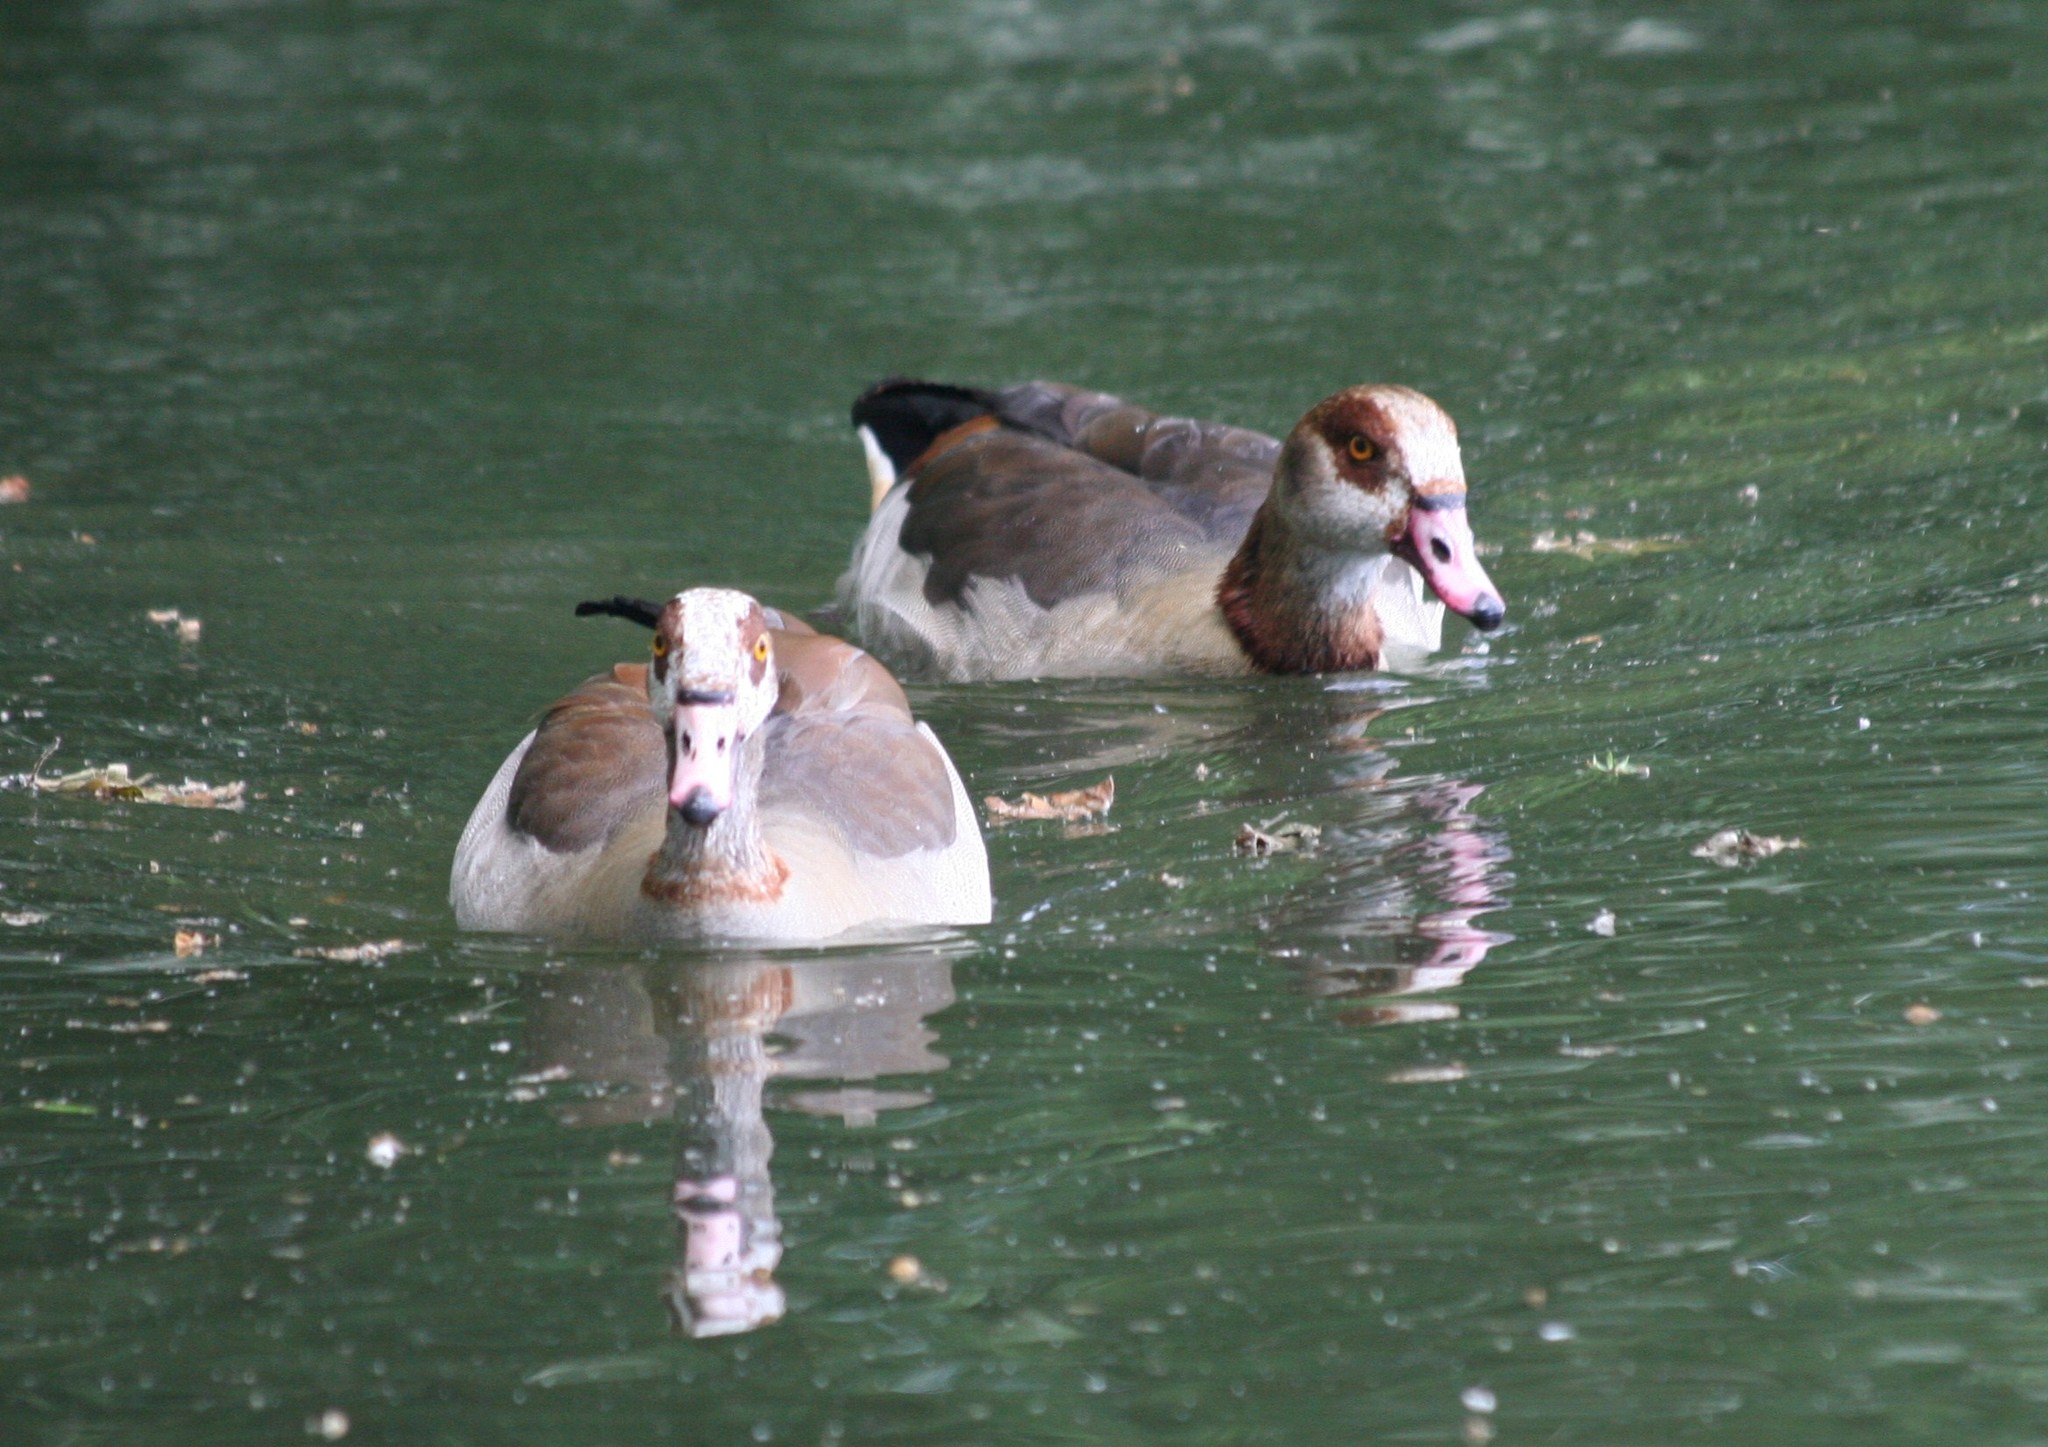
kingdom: Animalia
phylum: Chordata
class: Aves
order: Anseriformes
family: Anatidae
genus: Alopochen
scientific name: Alopochen aegyptiaca
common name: Egyptian goose
